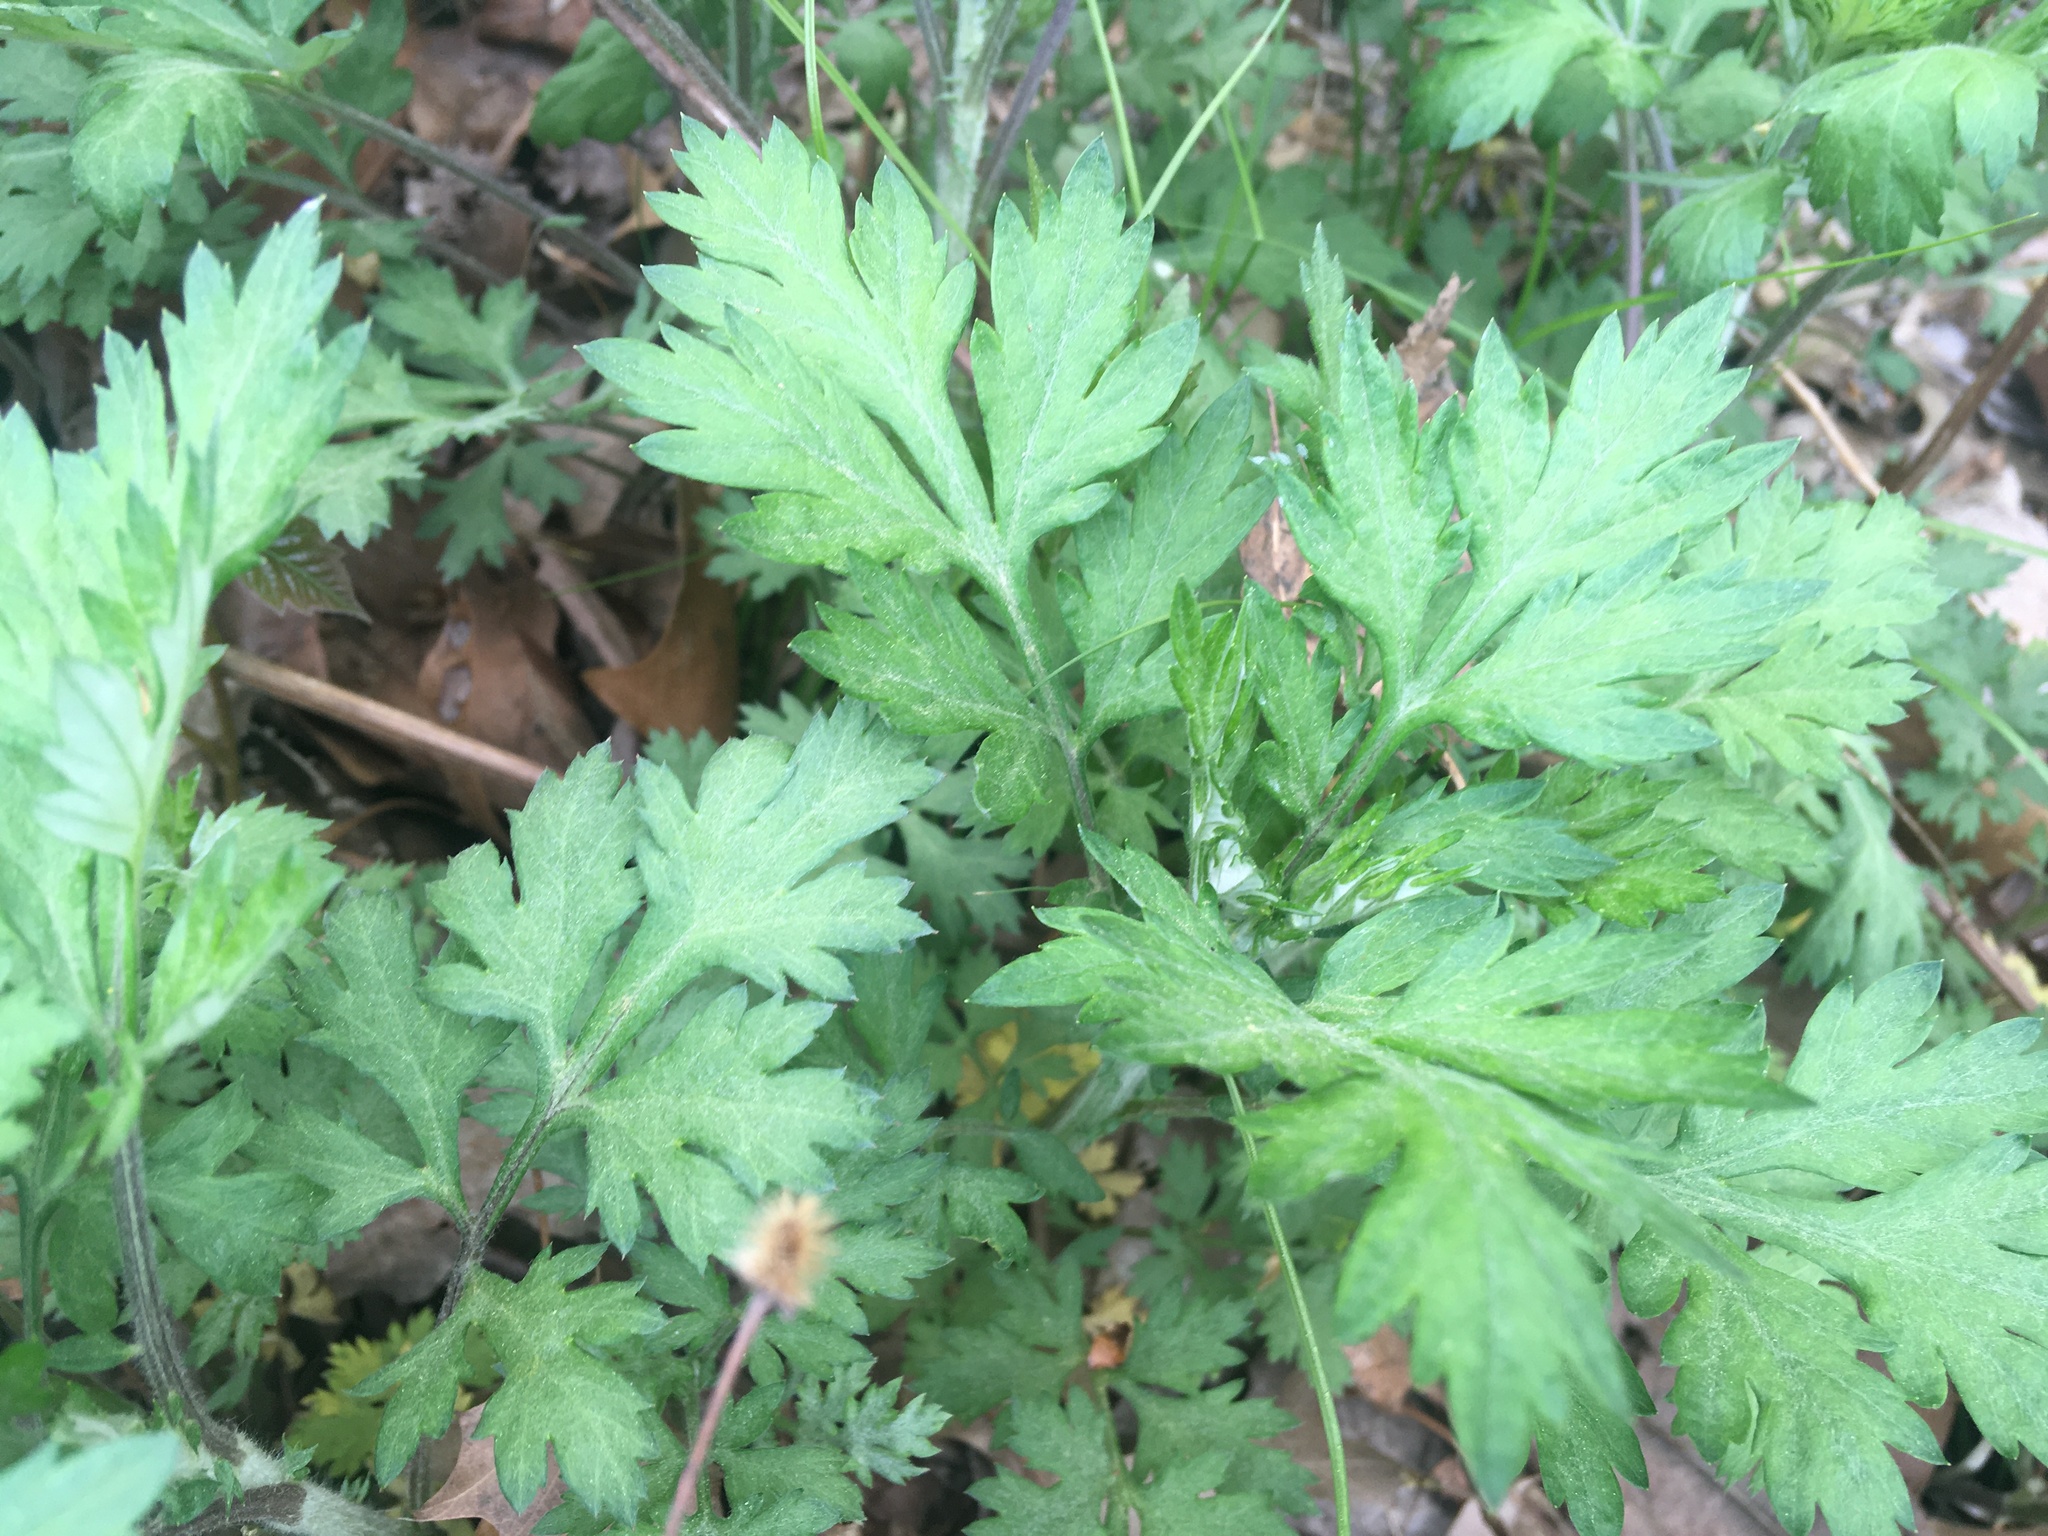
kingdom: Plantae
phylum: Tracheophyta
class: Magnoliopsida
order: Asterales
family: Asteraceae
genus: Artemisia
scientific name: Artemisia vulgaris
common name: Mugwort
